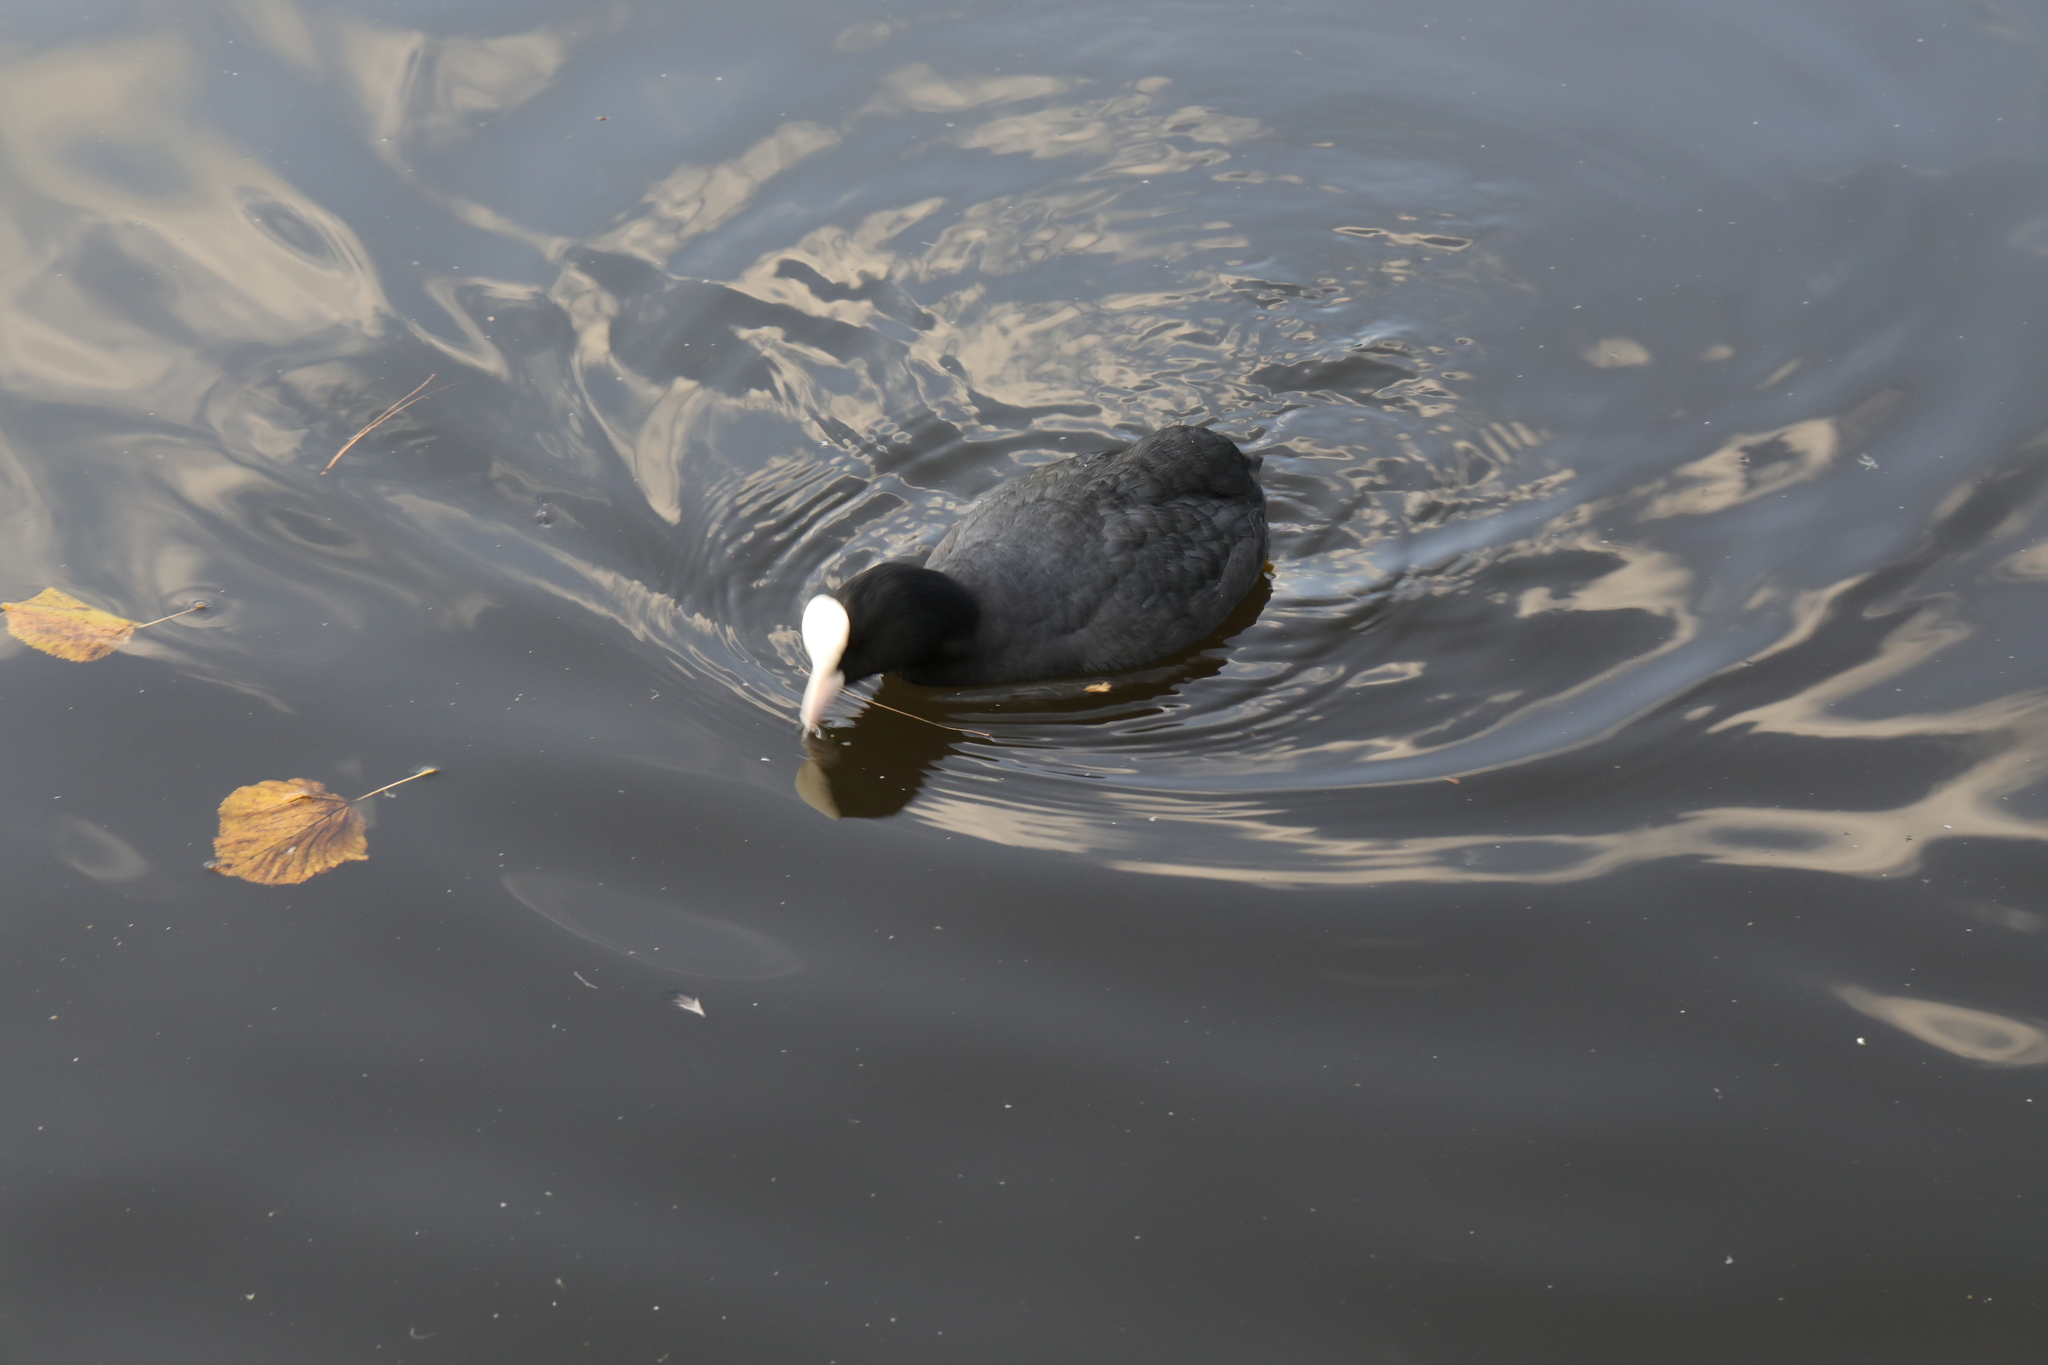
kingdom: Animalia
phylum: Chordata
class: Aves
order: Gruiformes
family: Rallidae
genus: Fulica
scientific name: Fulica atra
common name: Eurasian coot
